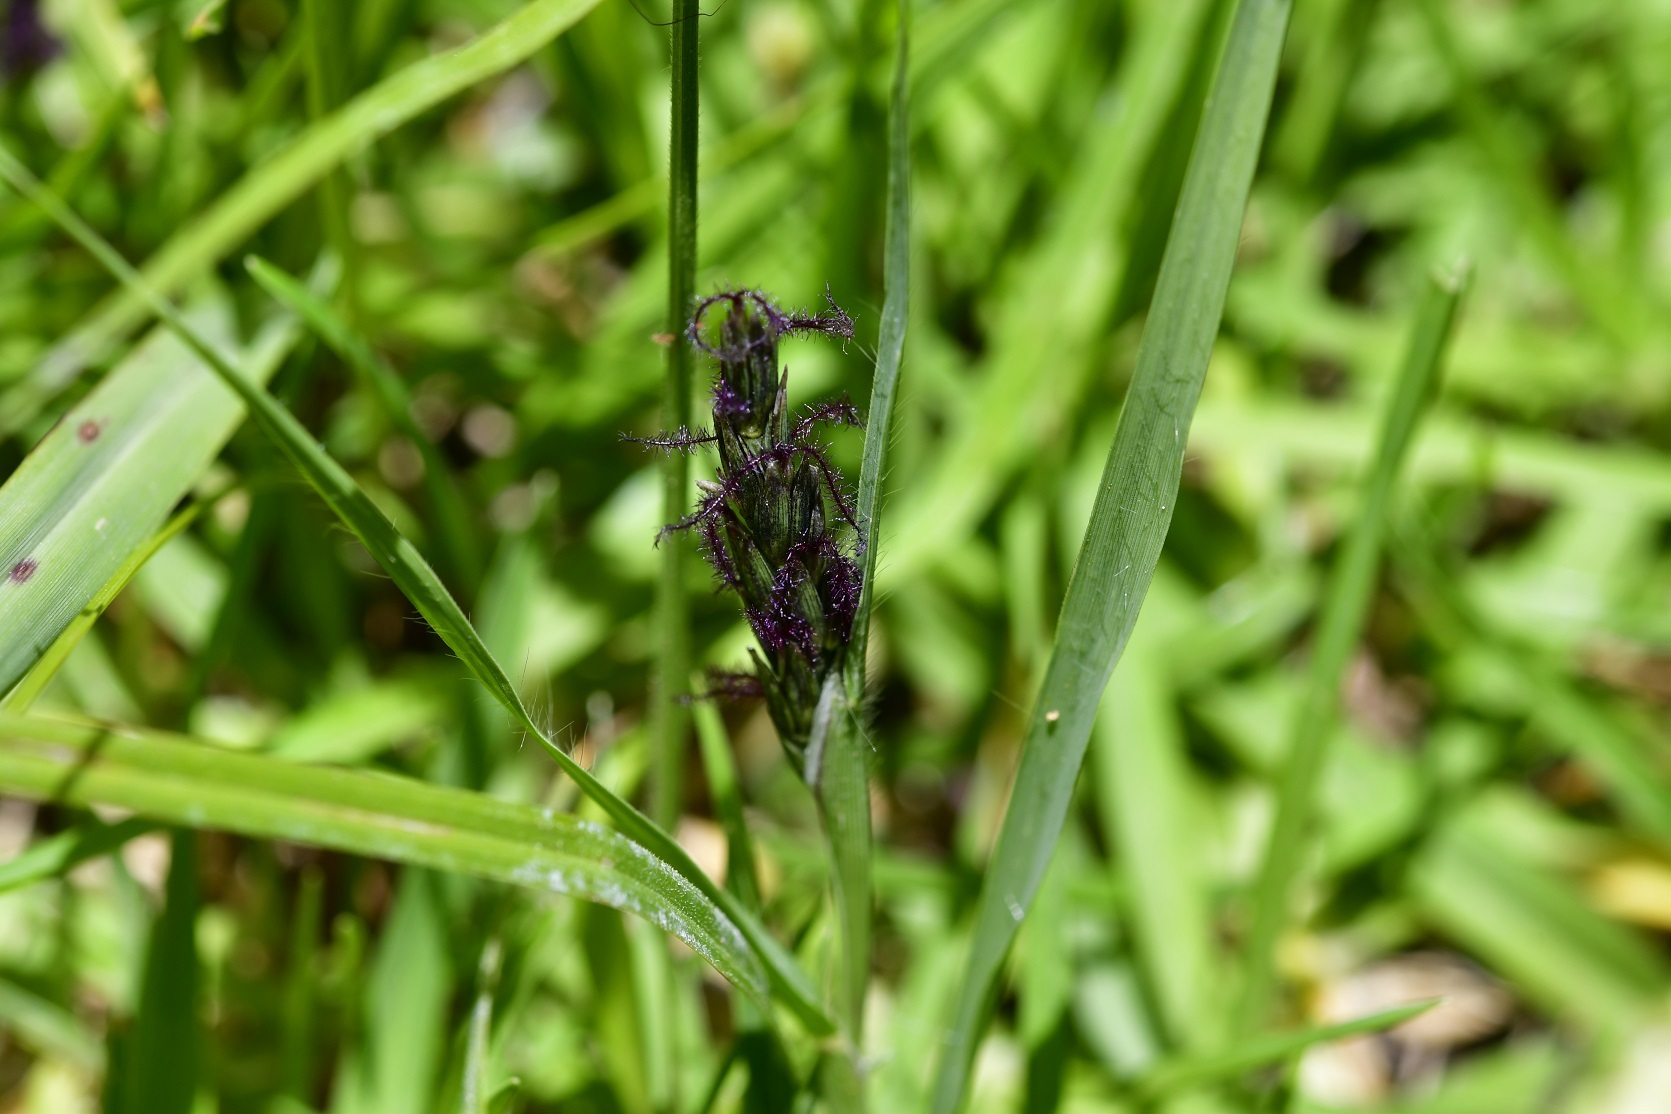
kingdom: Plantae
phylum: Tracheophyta
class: Liliopsida
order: Poales
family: Poaceae
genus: Hilaria
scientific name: Hilaria cenchroides
